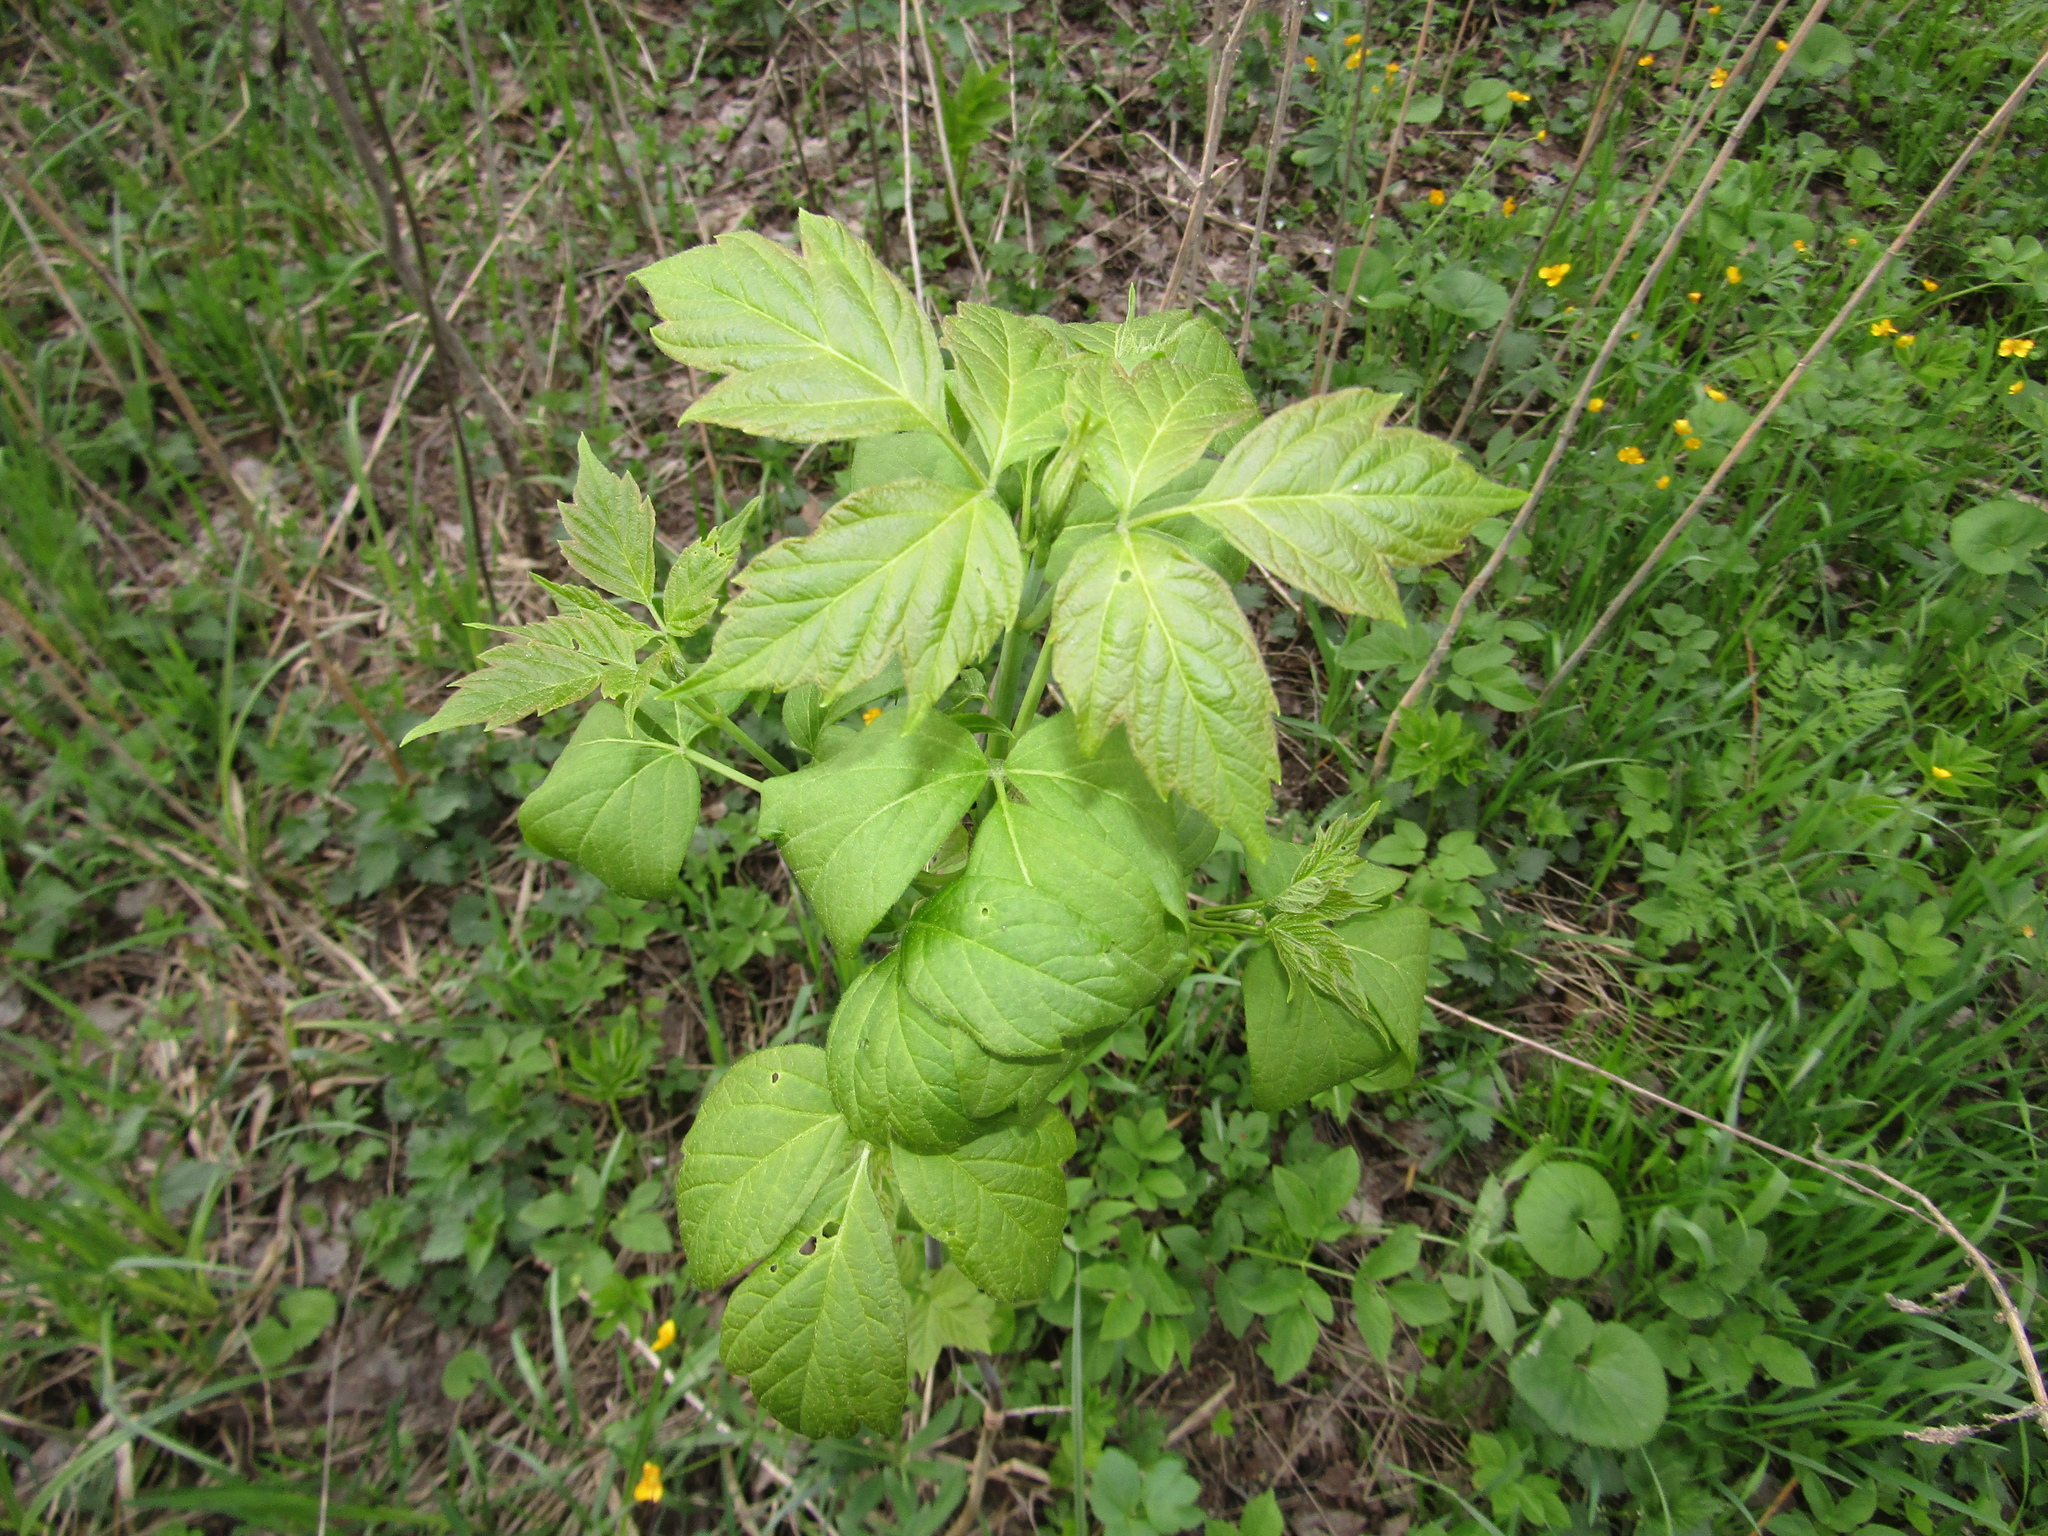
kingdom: Plantae
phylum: Tracheophyta
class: Magnoliopsida
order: Sapindales
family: Sapindaceae
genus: Acer
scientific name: Acer negundo
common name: Ashleaf maple
